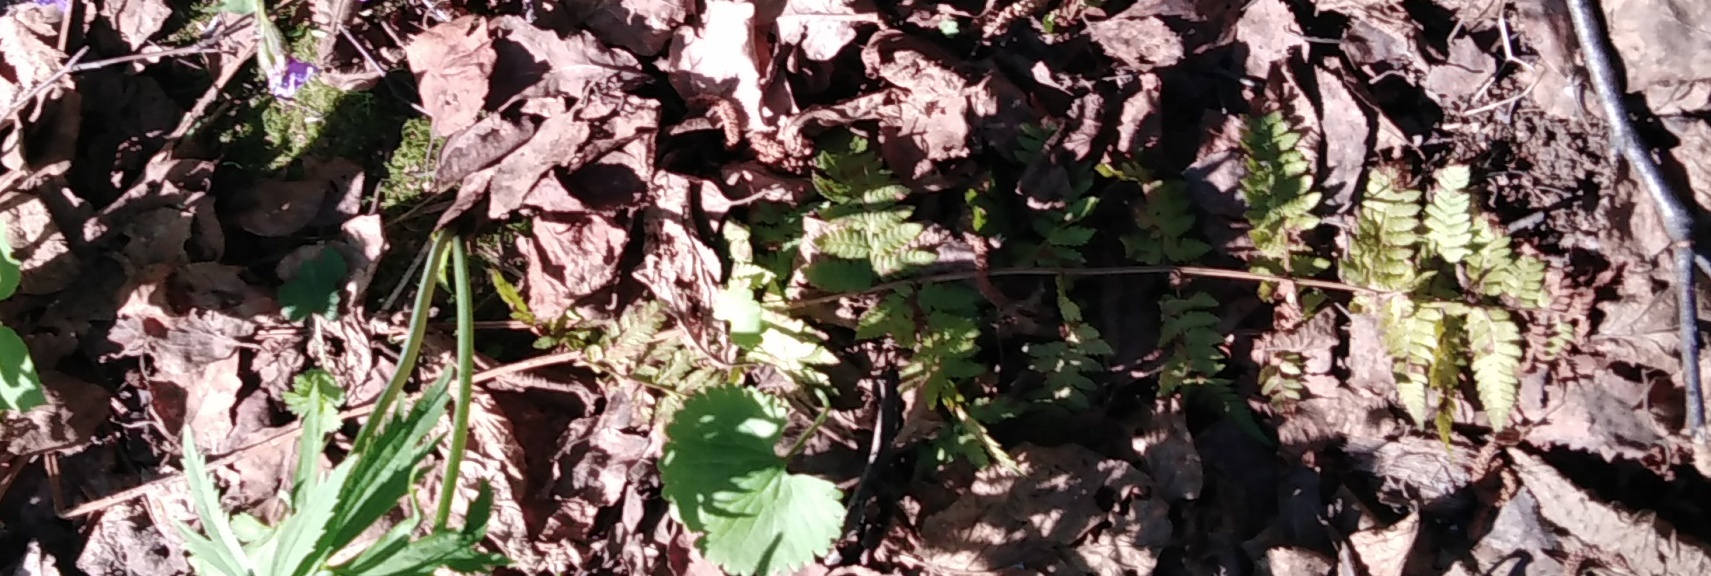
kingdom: Plantae
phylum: Tracheophyta
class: Polypodiopsida
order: Polypodiales
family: Dryopteridaceae
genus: Dryopteris
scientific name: Dryopteris carthusiana
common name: Narrow buckler-fern
